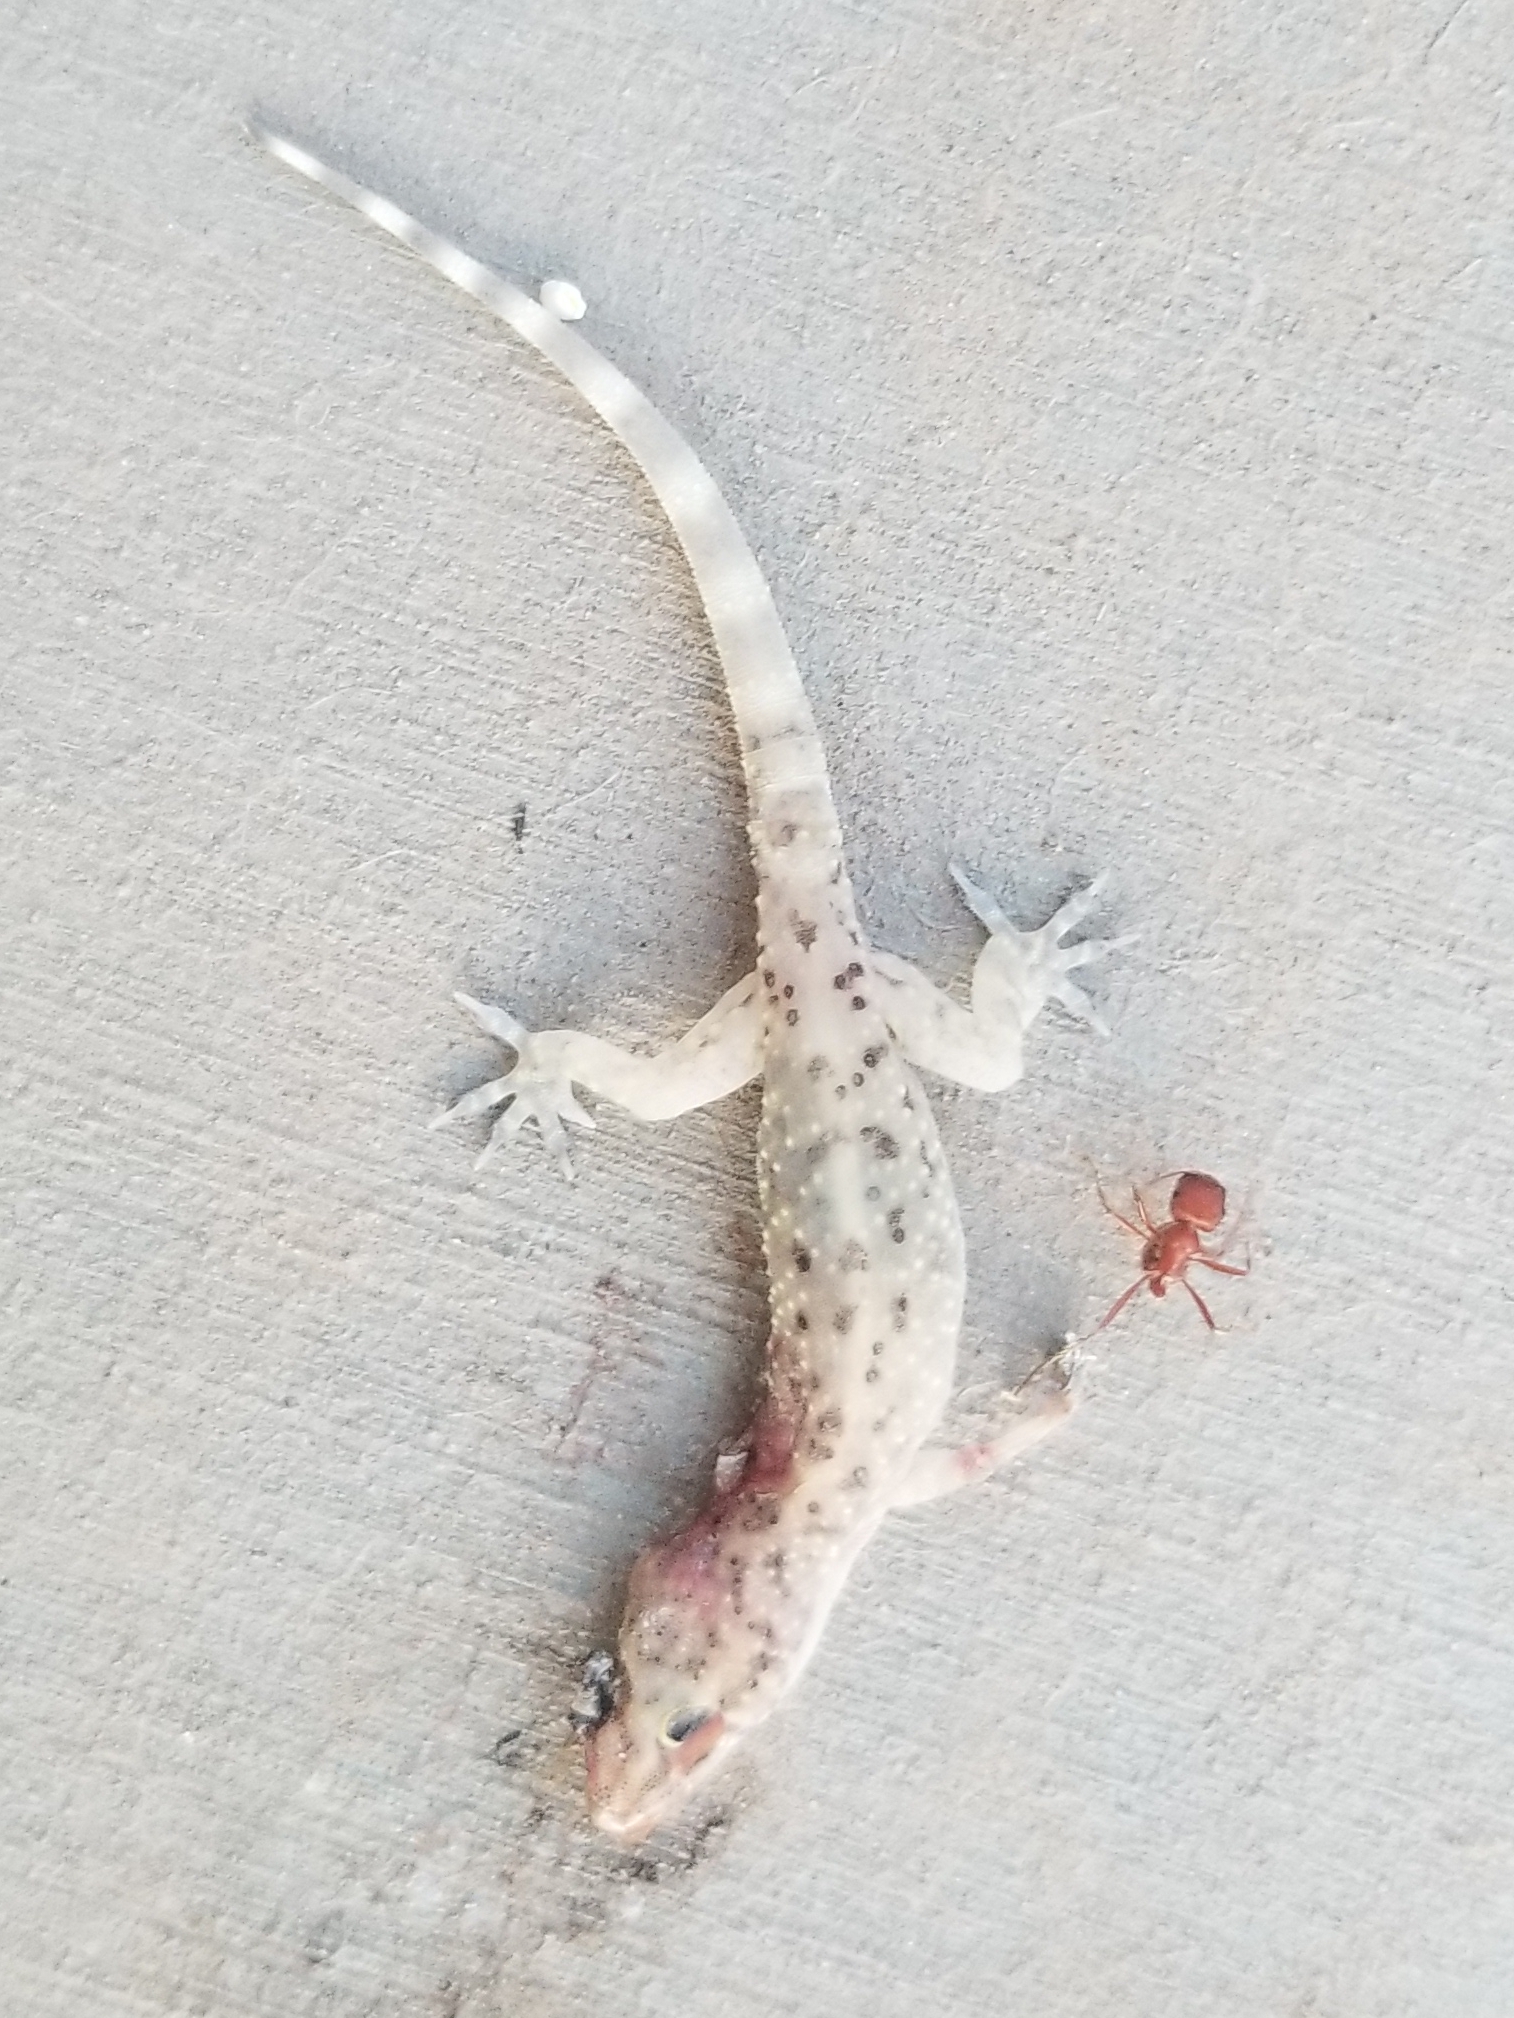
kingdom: Animalia
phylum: Chordata
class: Squamata
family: Gekkonidae
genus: Hemidactylus
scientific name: Hemidactylus turcicus
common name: Turkish gecko
